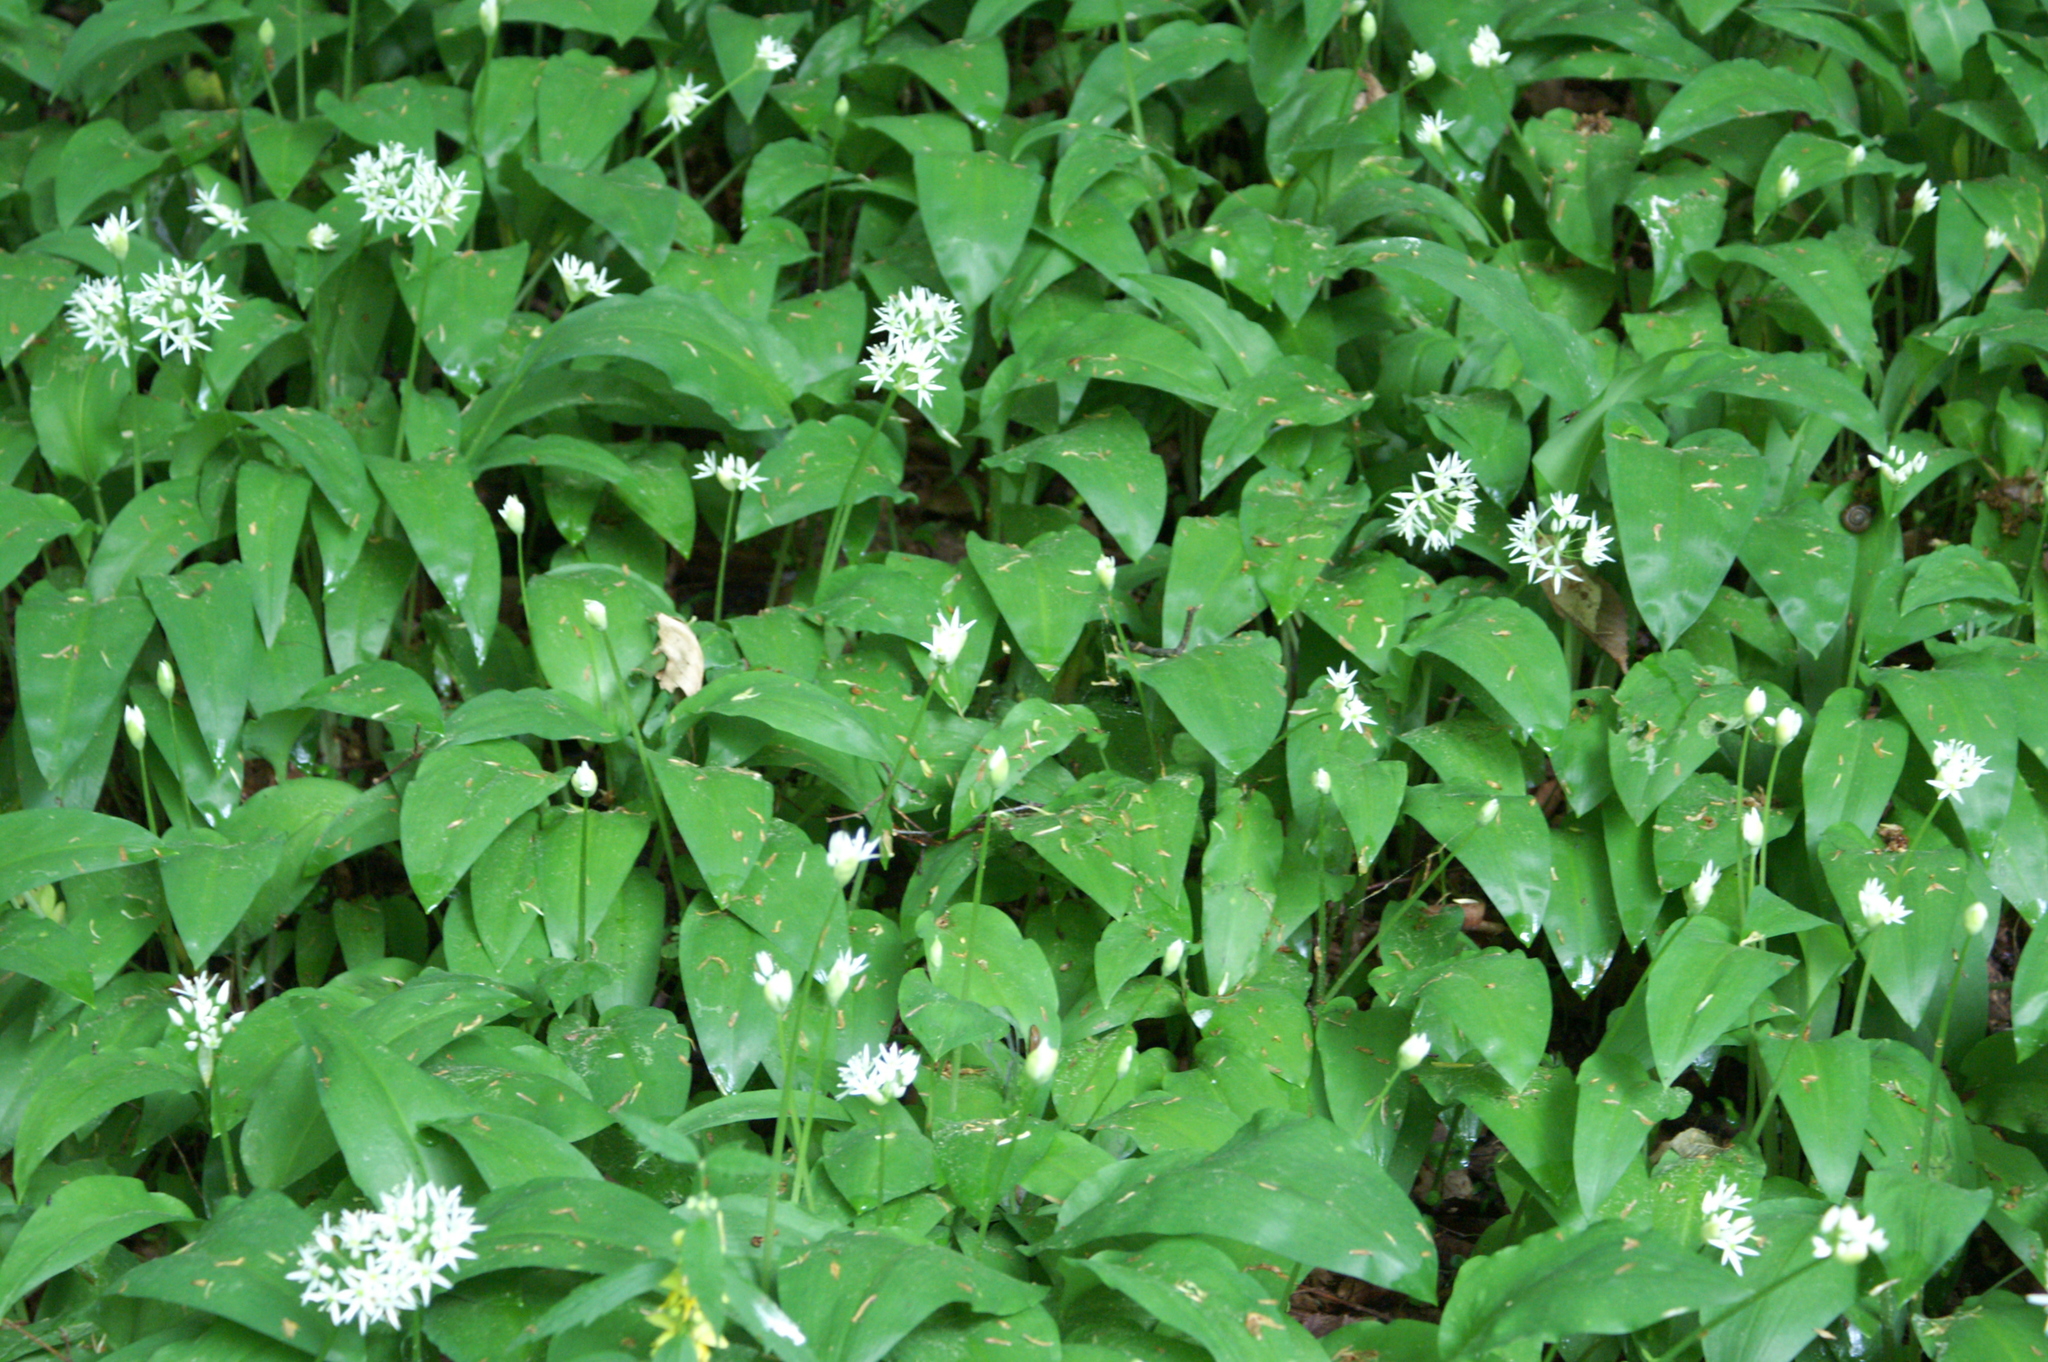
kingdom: Plantae
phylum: Tracheophyta
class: Liliopsida
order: Asparagales
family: Amaryllidaceae
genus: Allium
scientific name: Allium ursinum
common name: Ramsons
